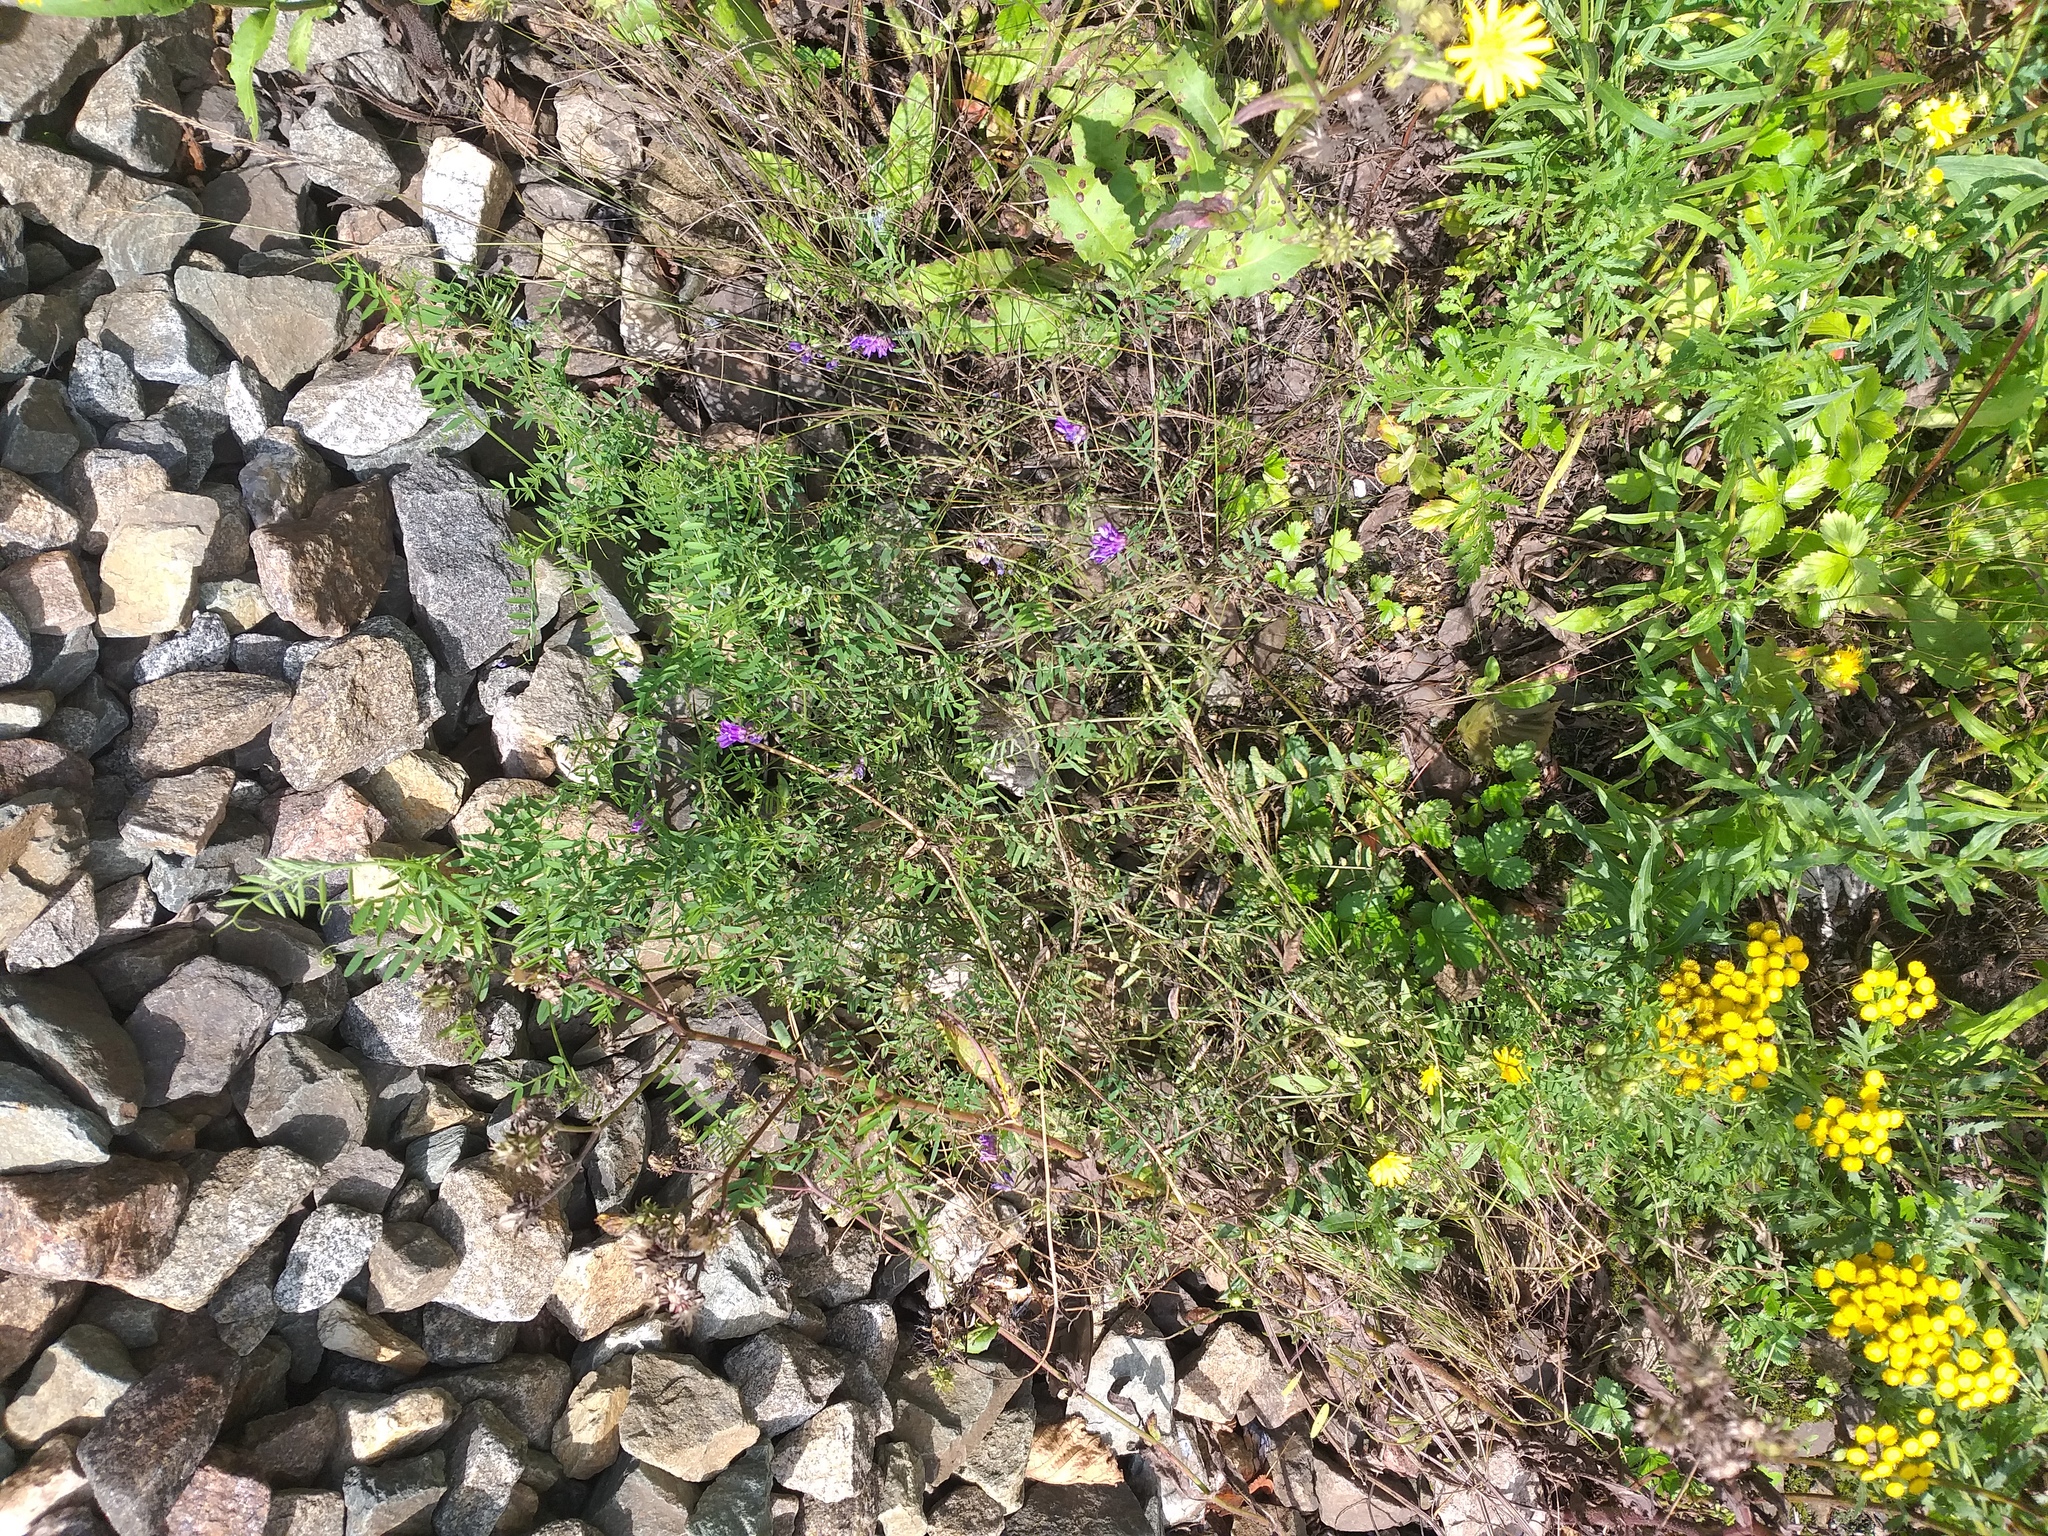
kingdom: Plantae
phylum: Tracheophyta
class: Magnoliopsida
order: Fabales
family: Fabaceae
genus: Vicia
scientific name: Vicia cracca
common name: Bird vetch
